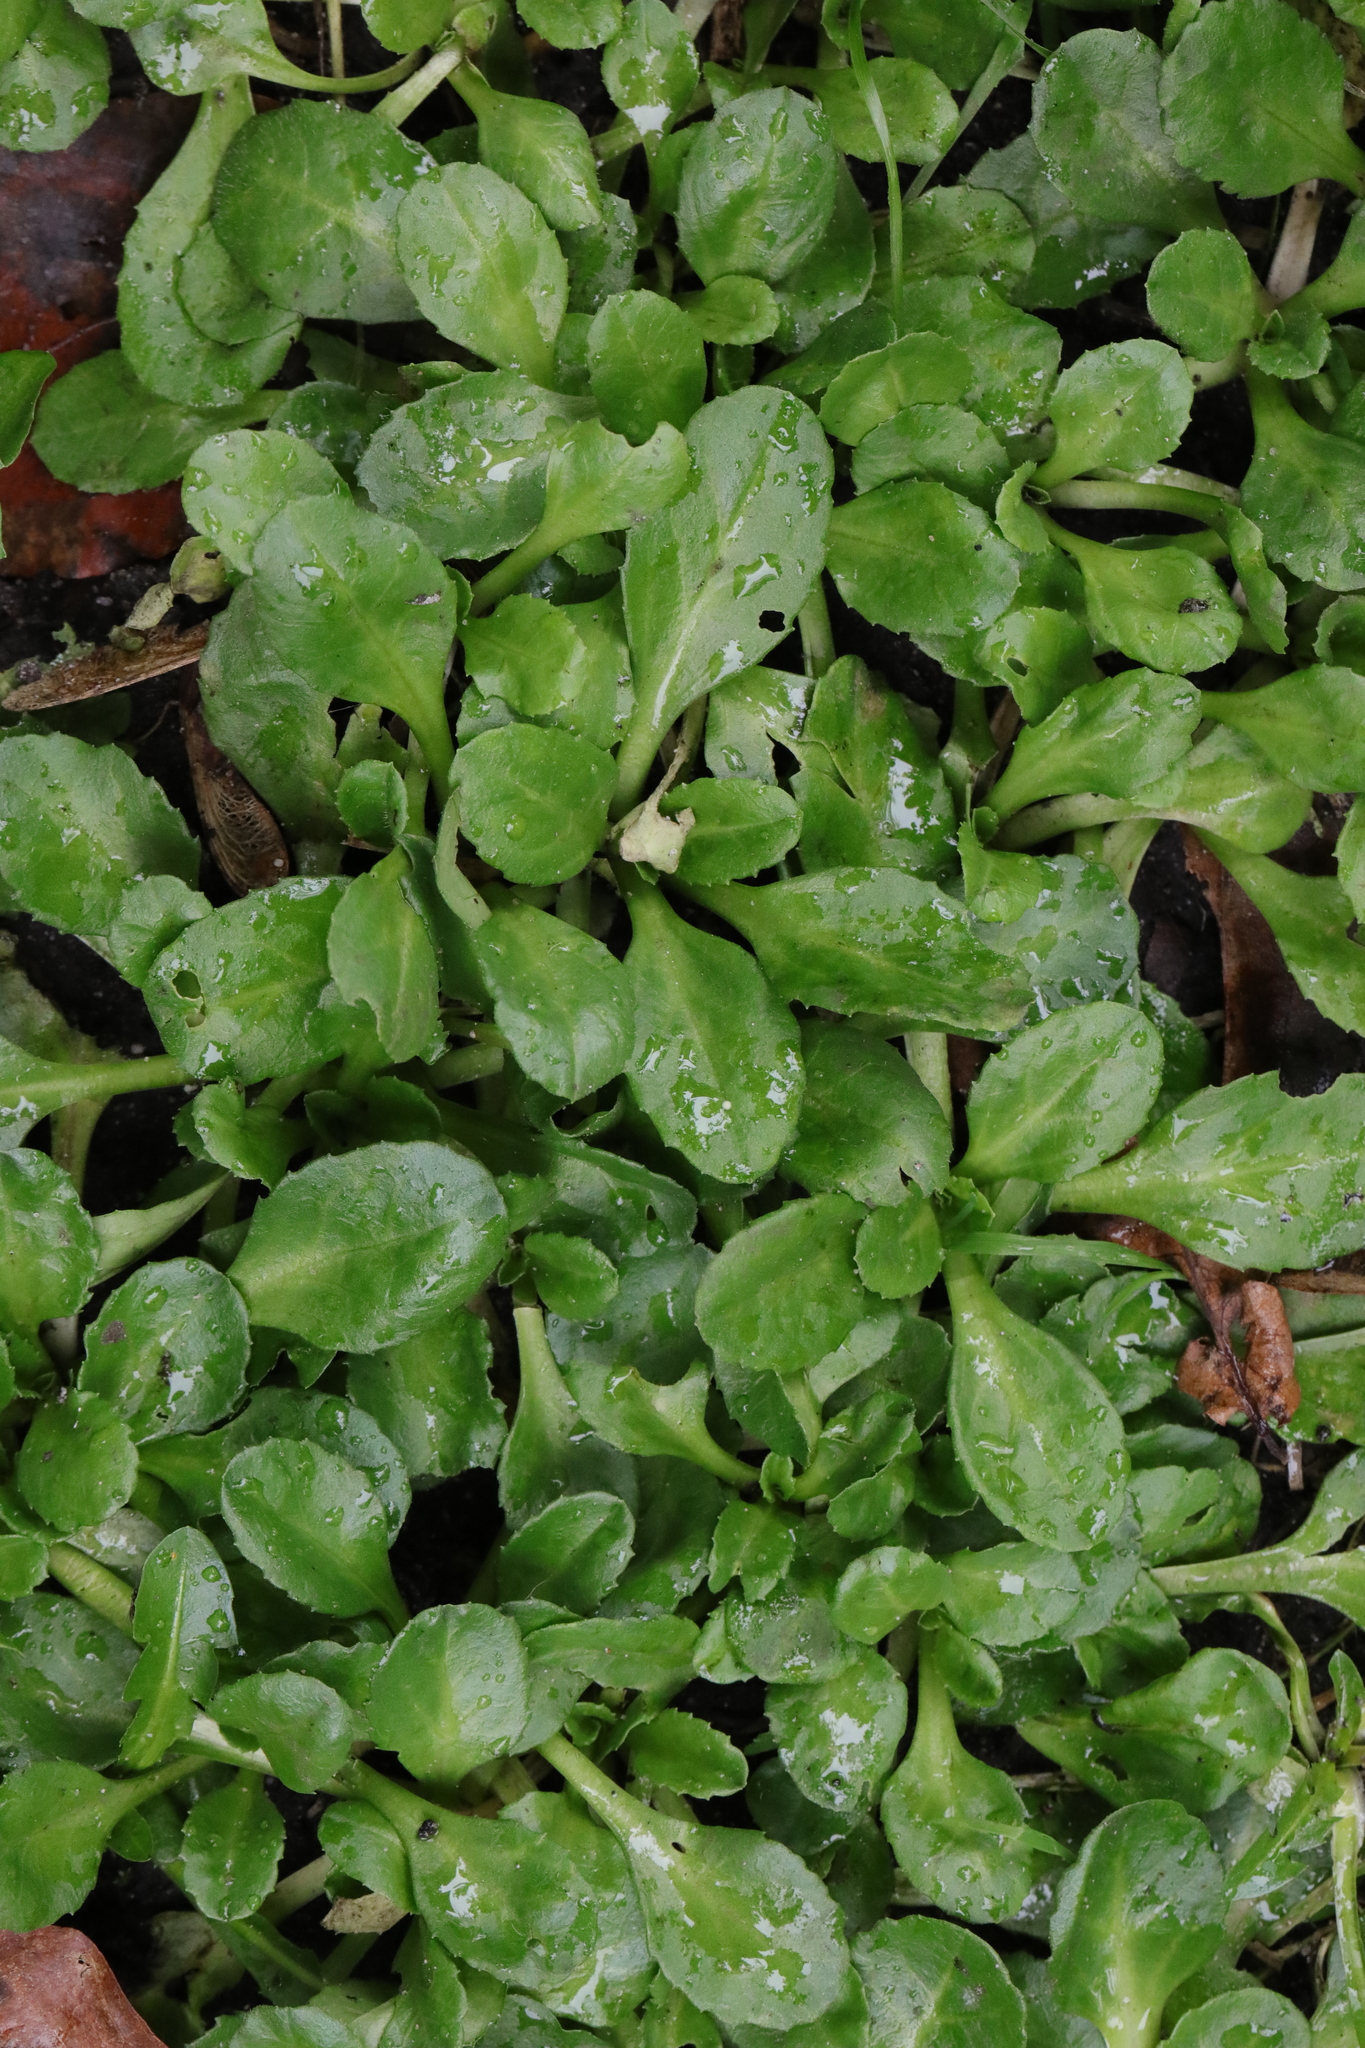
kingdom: Plantae
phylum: Tracheophyta
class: Magnoliopsida
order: Asterales
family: Asteraceae
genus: Bellis
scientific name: Bellis perennis
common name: Lawndaisy
